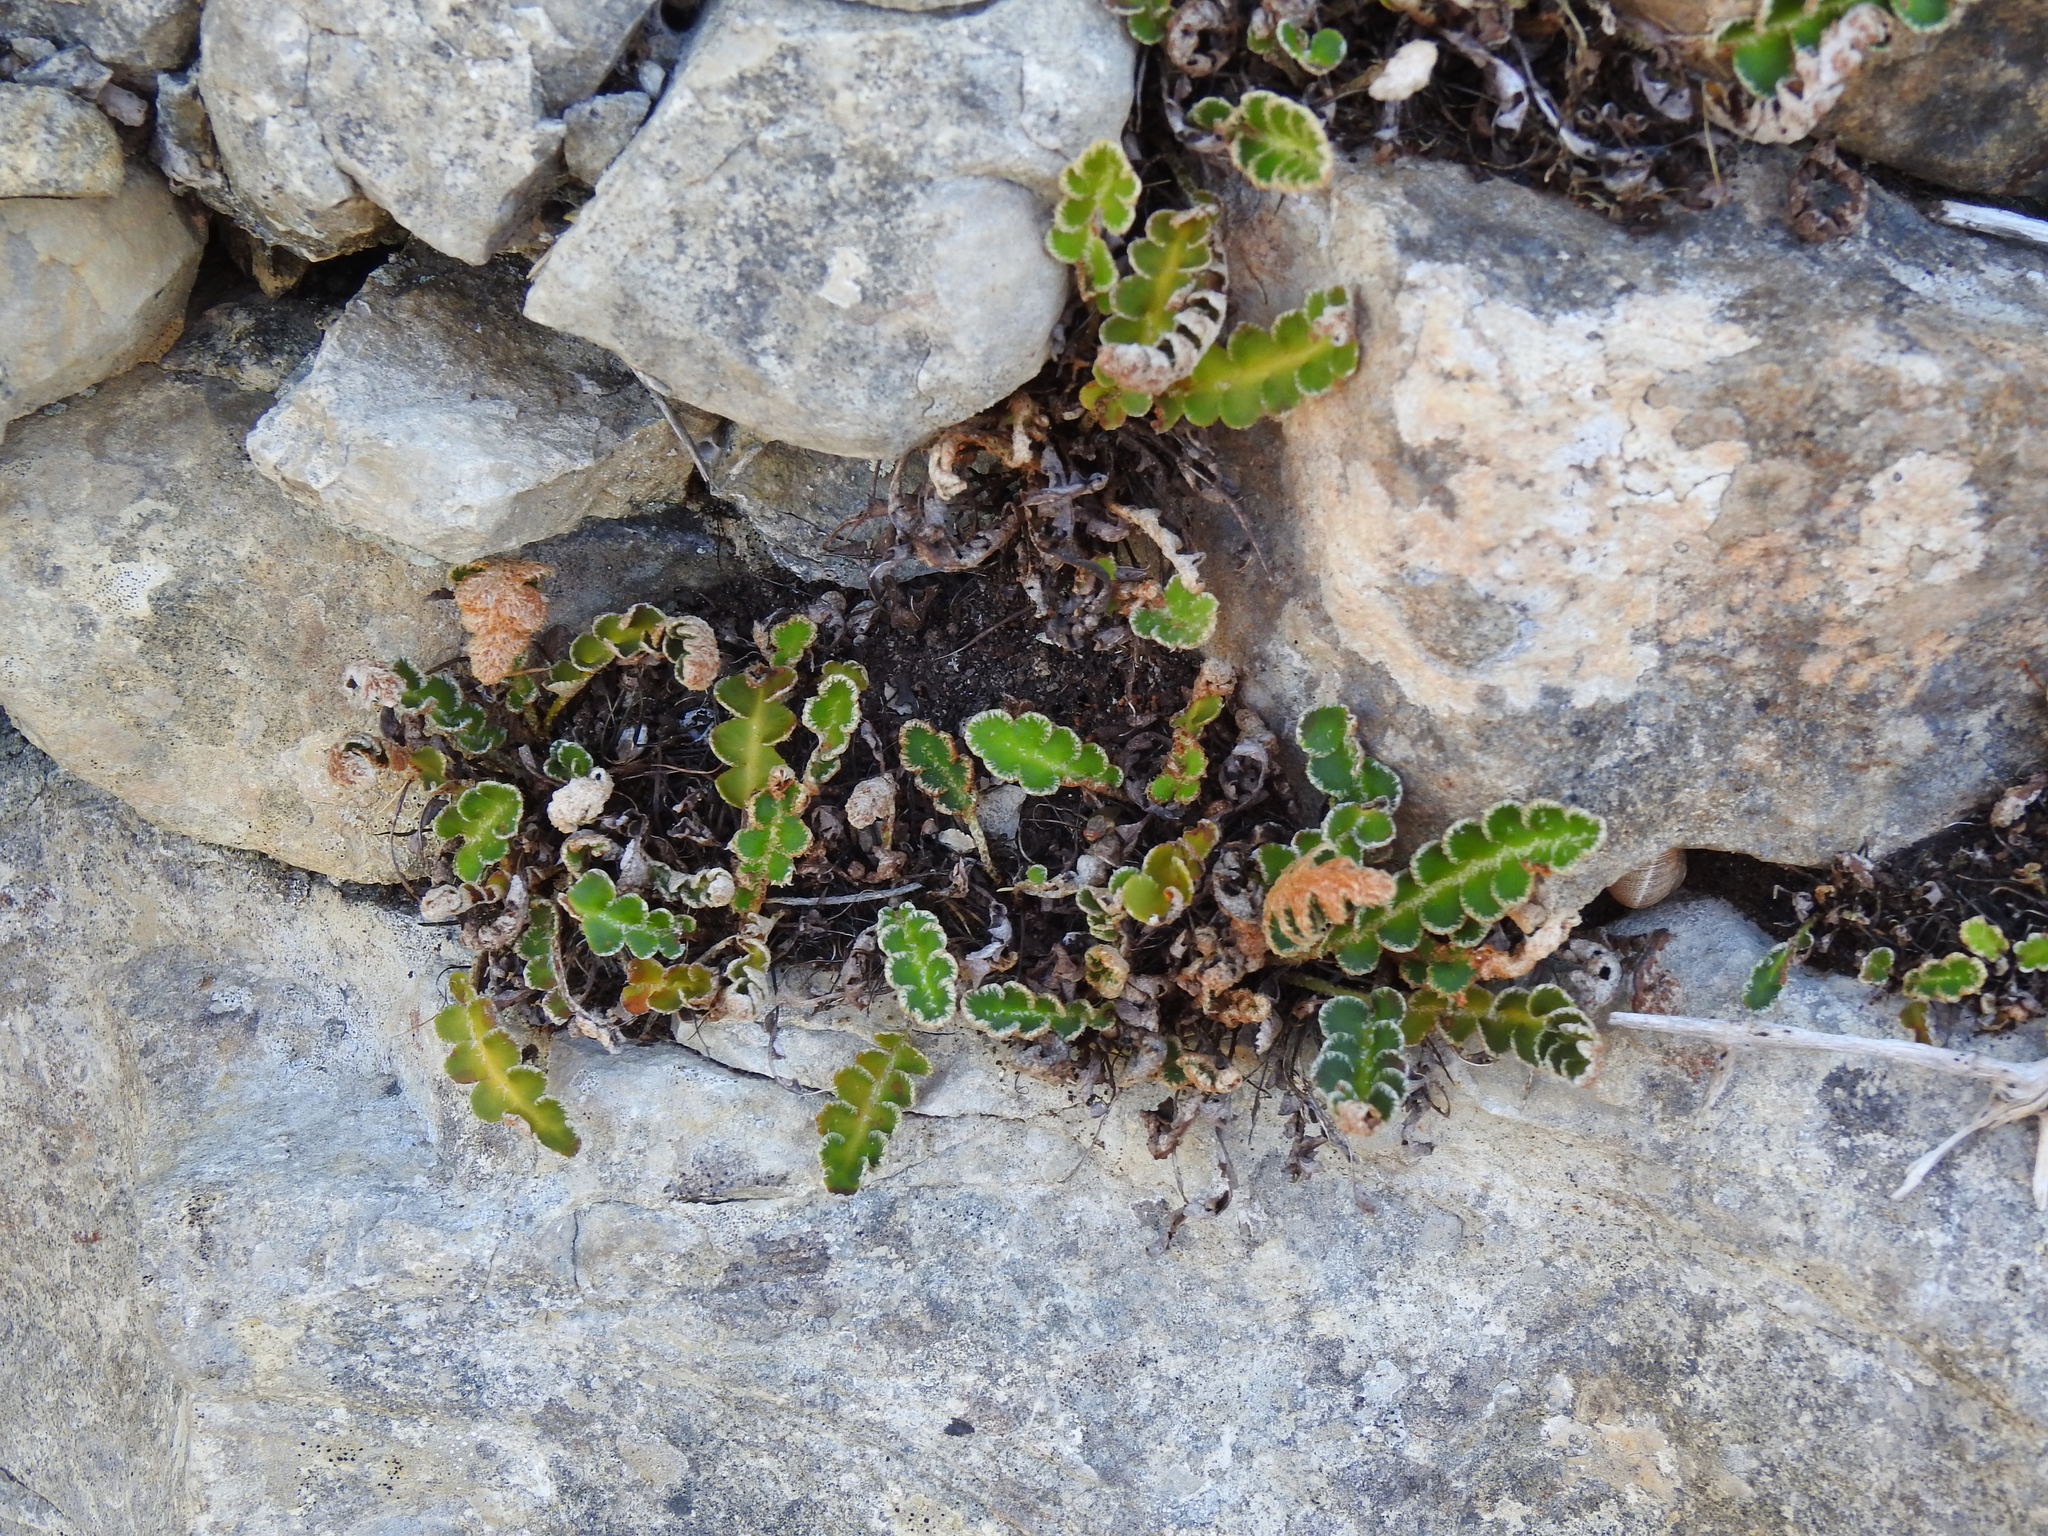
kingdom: Plantae
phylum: Tracheophyta
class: Polypodiopsida
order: Polypodiales
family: Aspleniaceae
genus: Asplenium
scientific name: Asplenium ceterach
